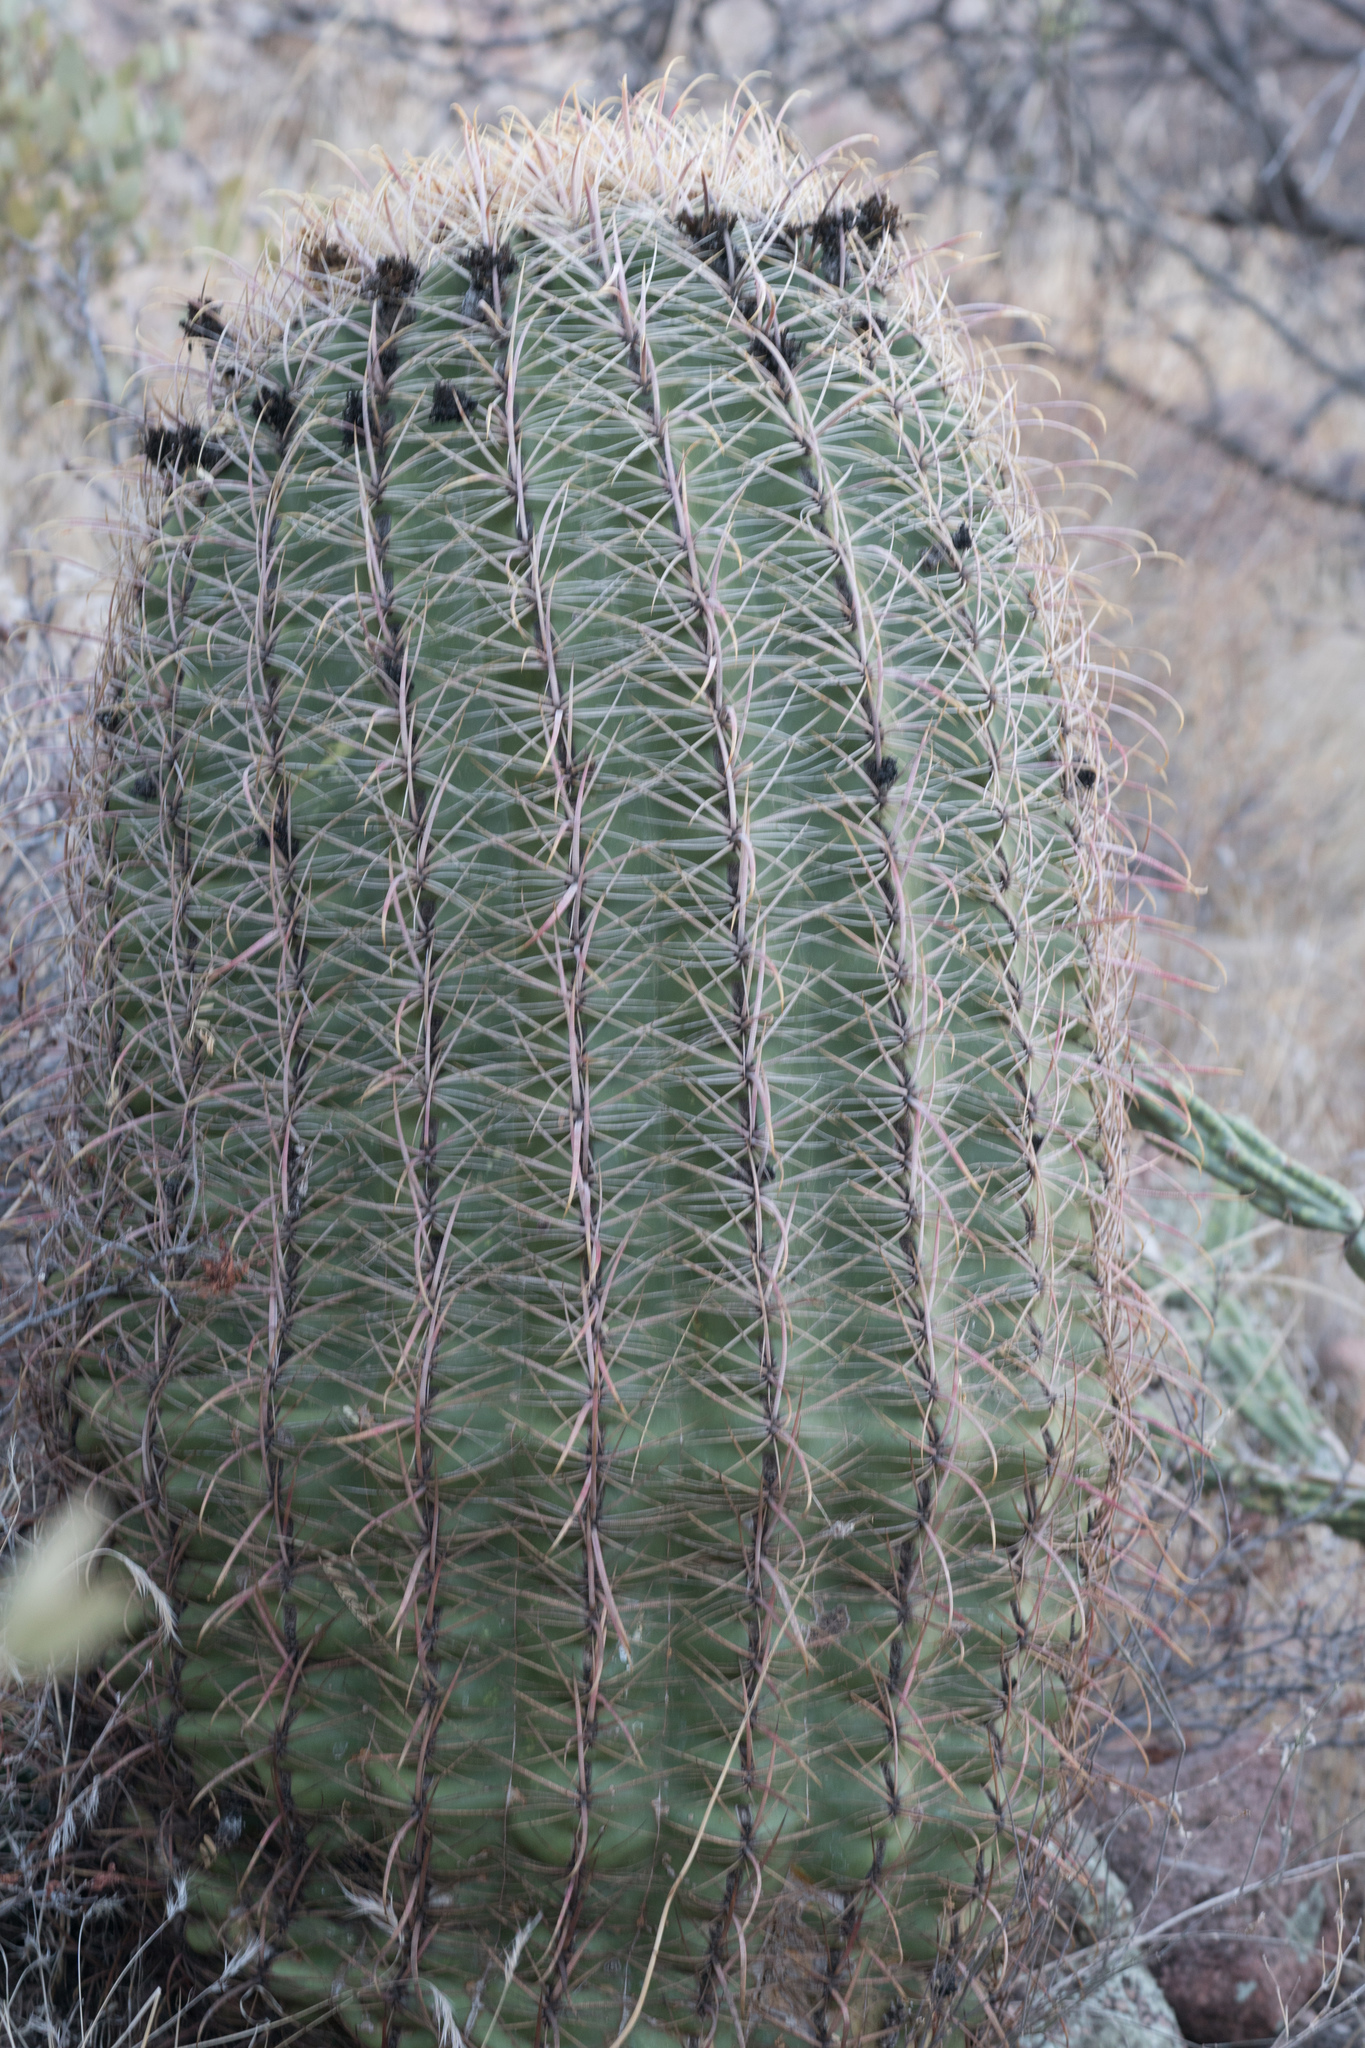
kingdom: Plantae
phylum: Tracheophyta
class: Magnoliopsida
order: Caryophyllales
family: Cactaceae
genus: Ferocactus
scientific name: Ferocactus cylindraceus
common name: California barrel cactus
